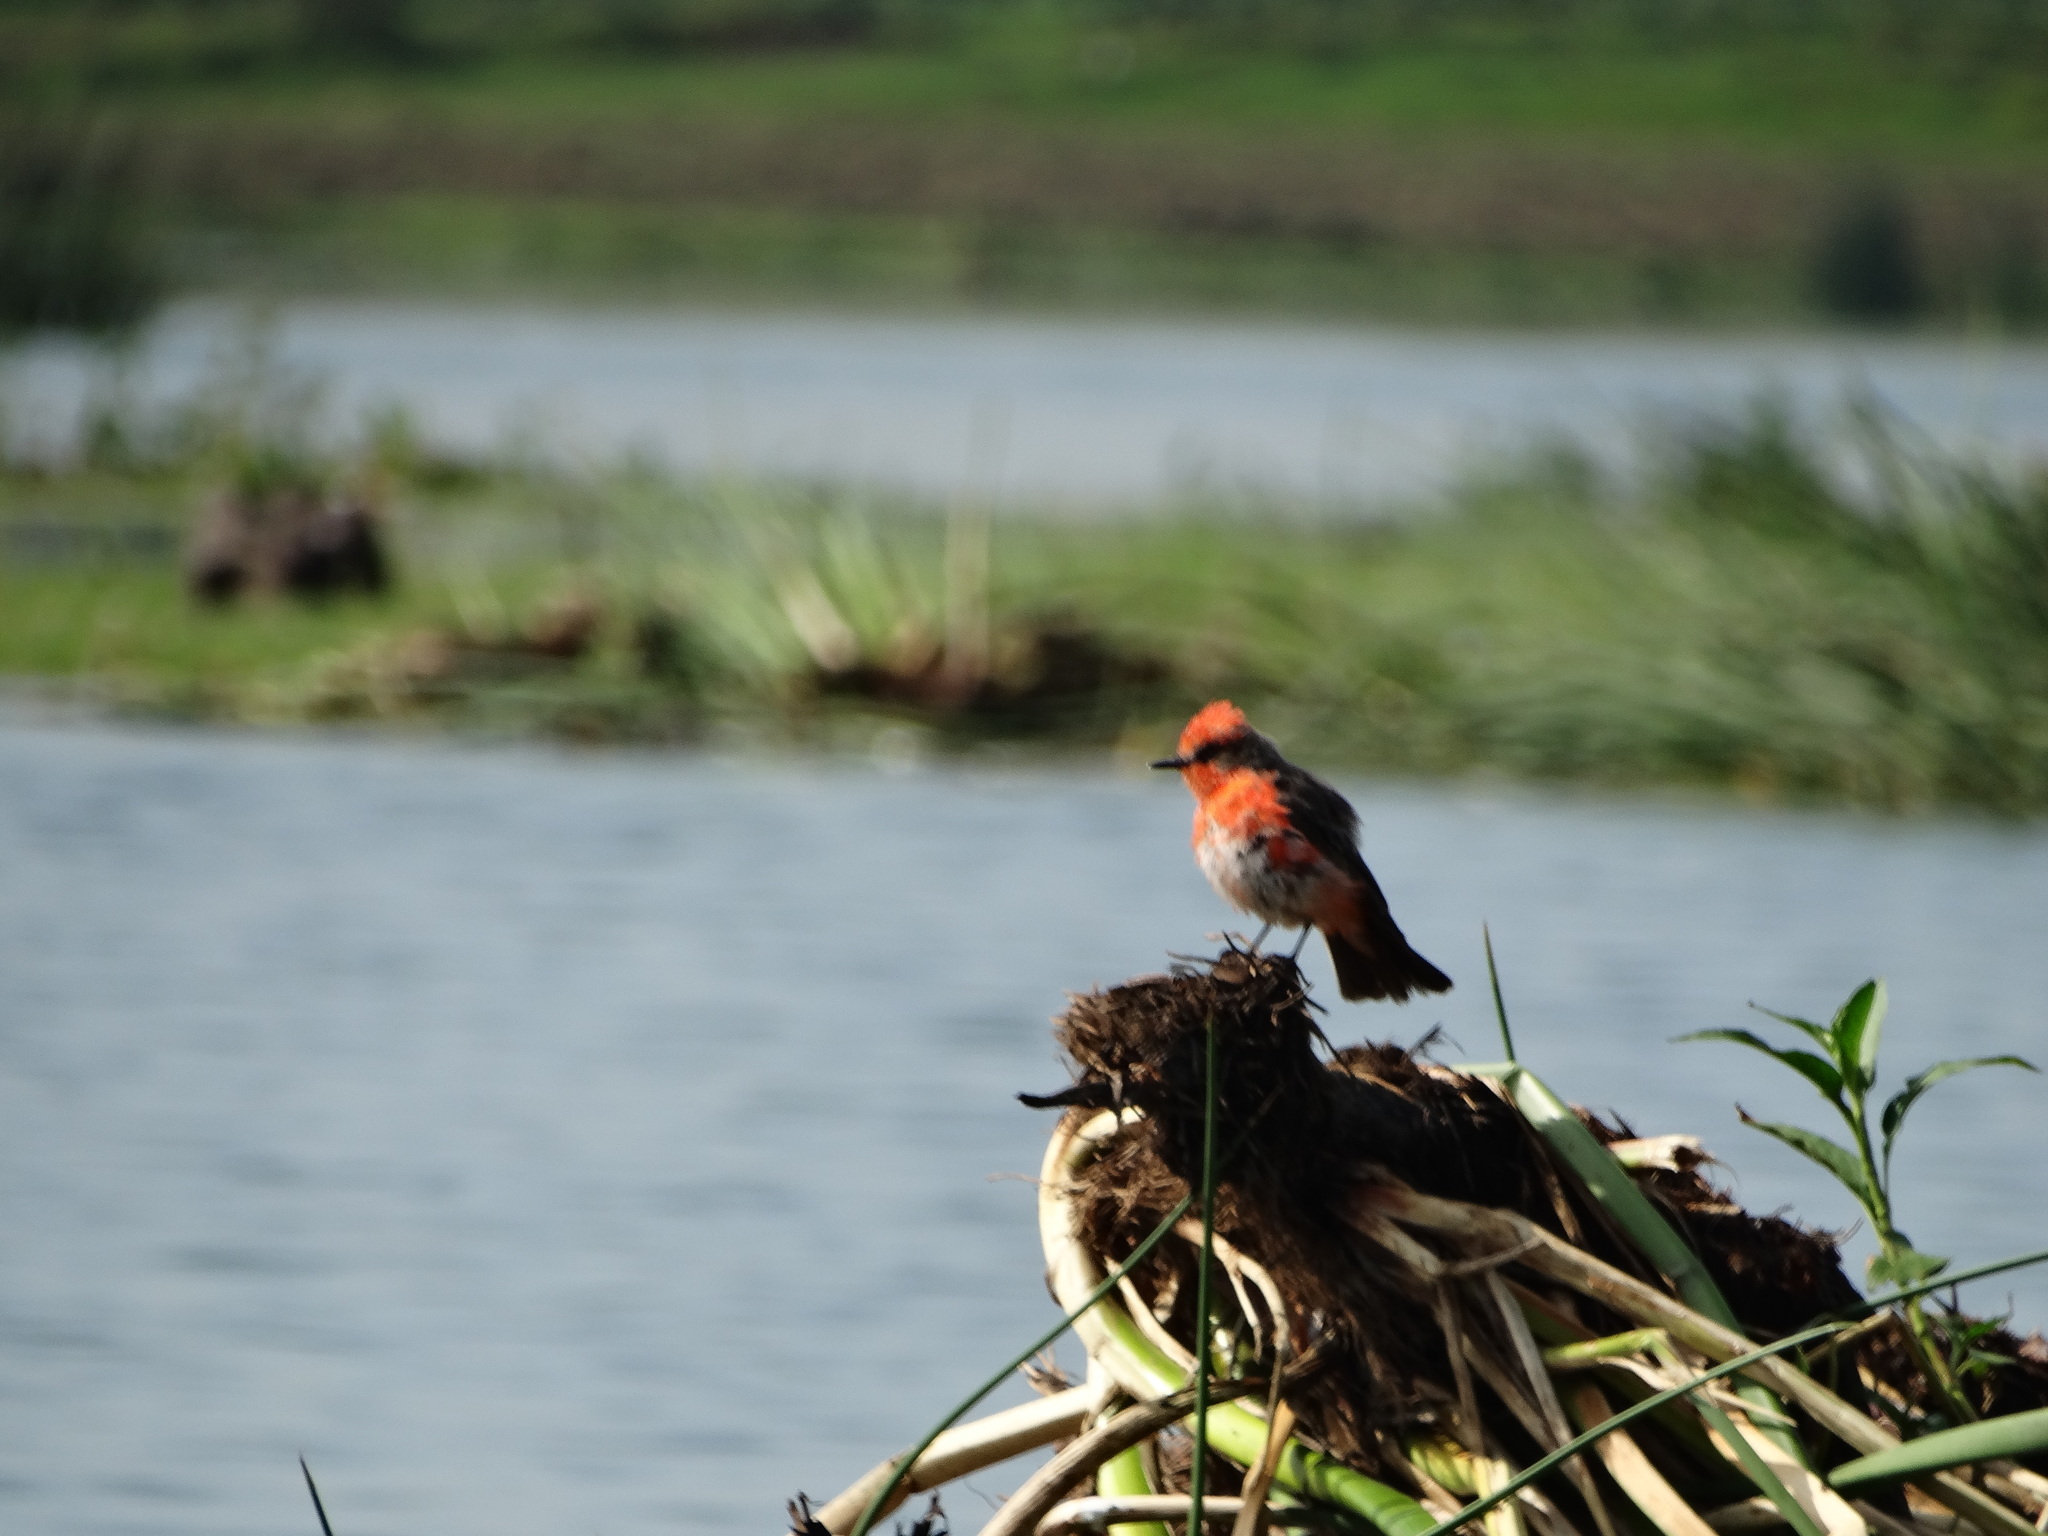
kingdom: Animalia
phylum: Chordata
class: Aves
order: Passeriformes
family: Tyrannidae
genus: Pyrocephalus
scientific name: Pyrocephalus rubinus
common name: Vermilion flycatcher
